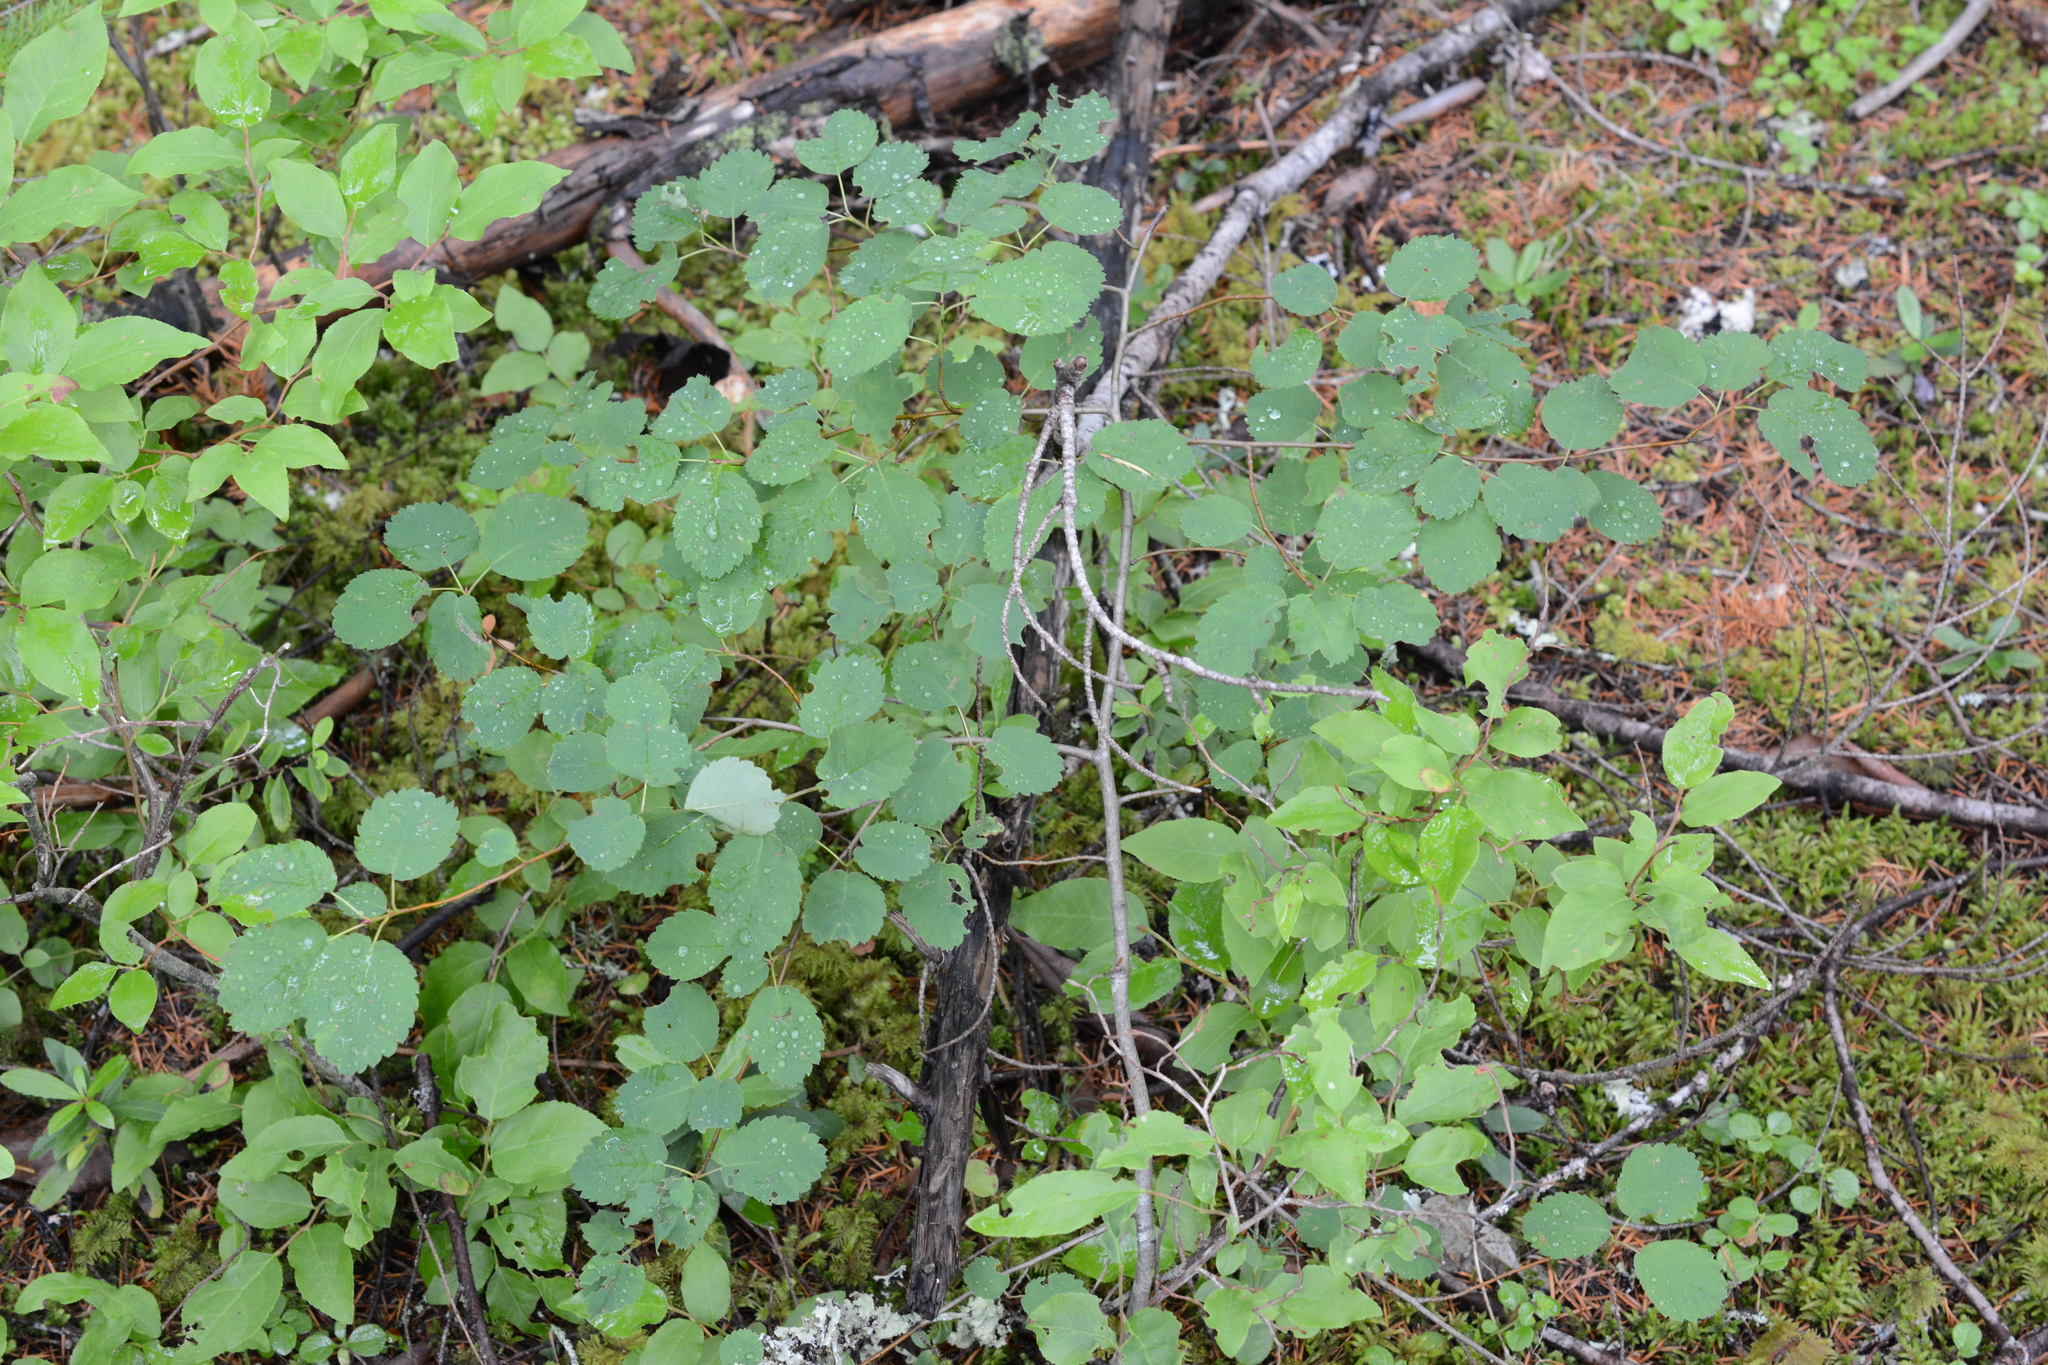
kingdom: Plantae
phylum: Tracheophyta
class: Magnoliopsida
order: Rosales
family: Rosaceae
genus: Amelanchier
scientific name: Amelanchier alnifolia
